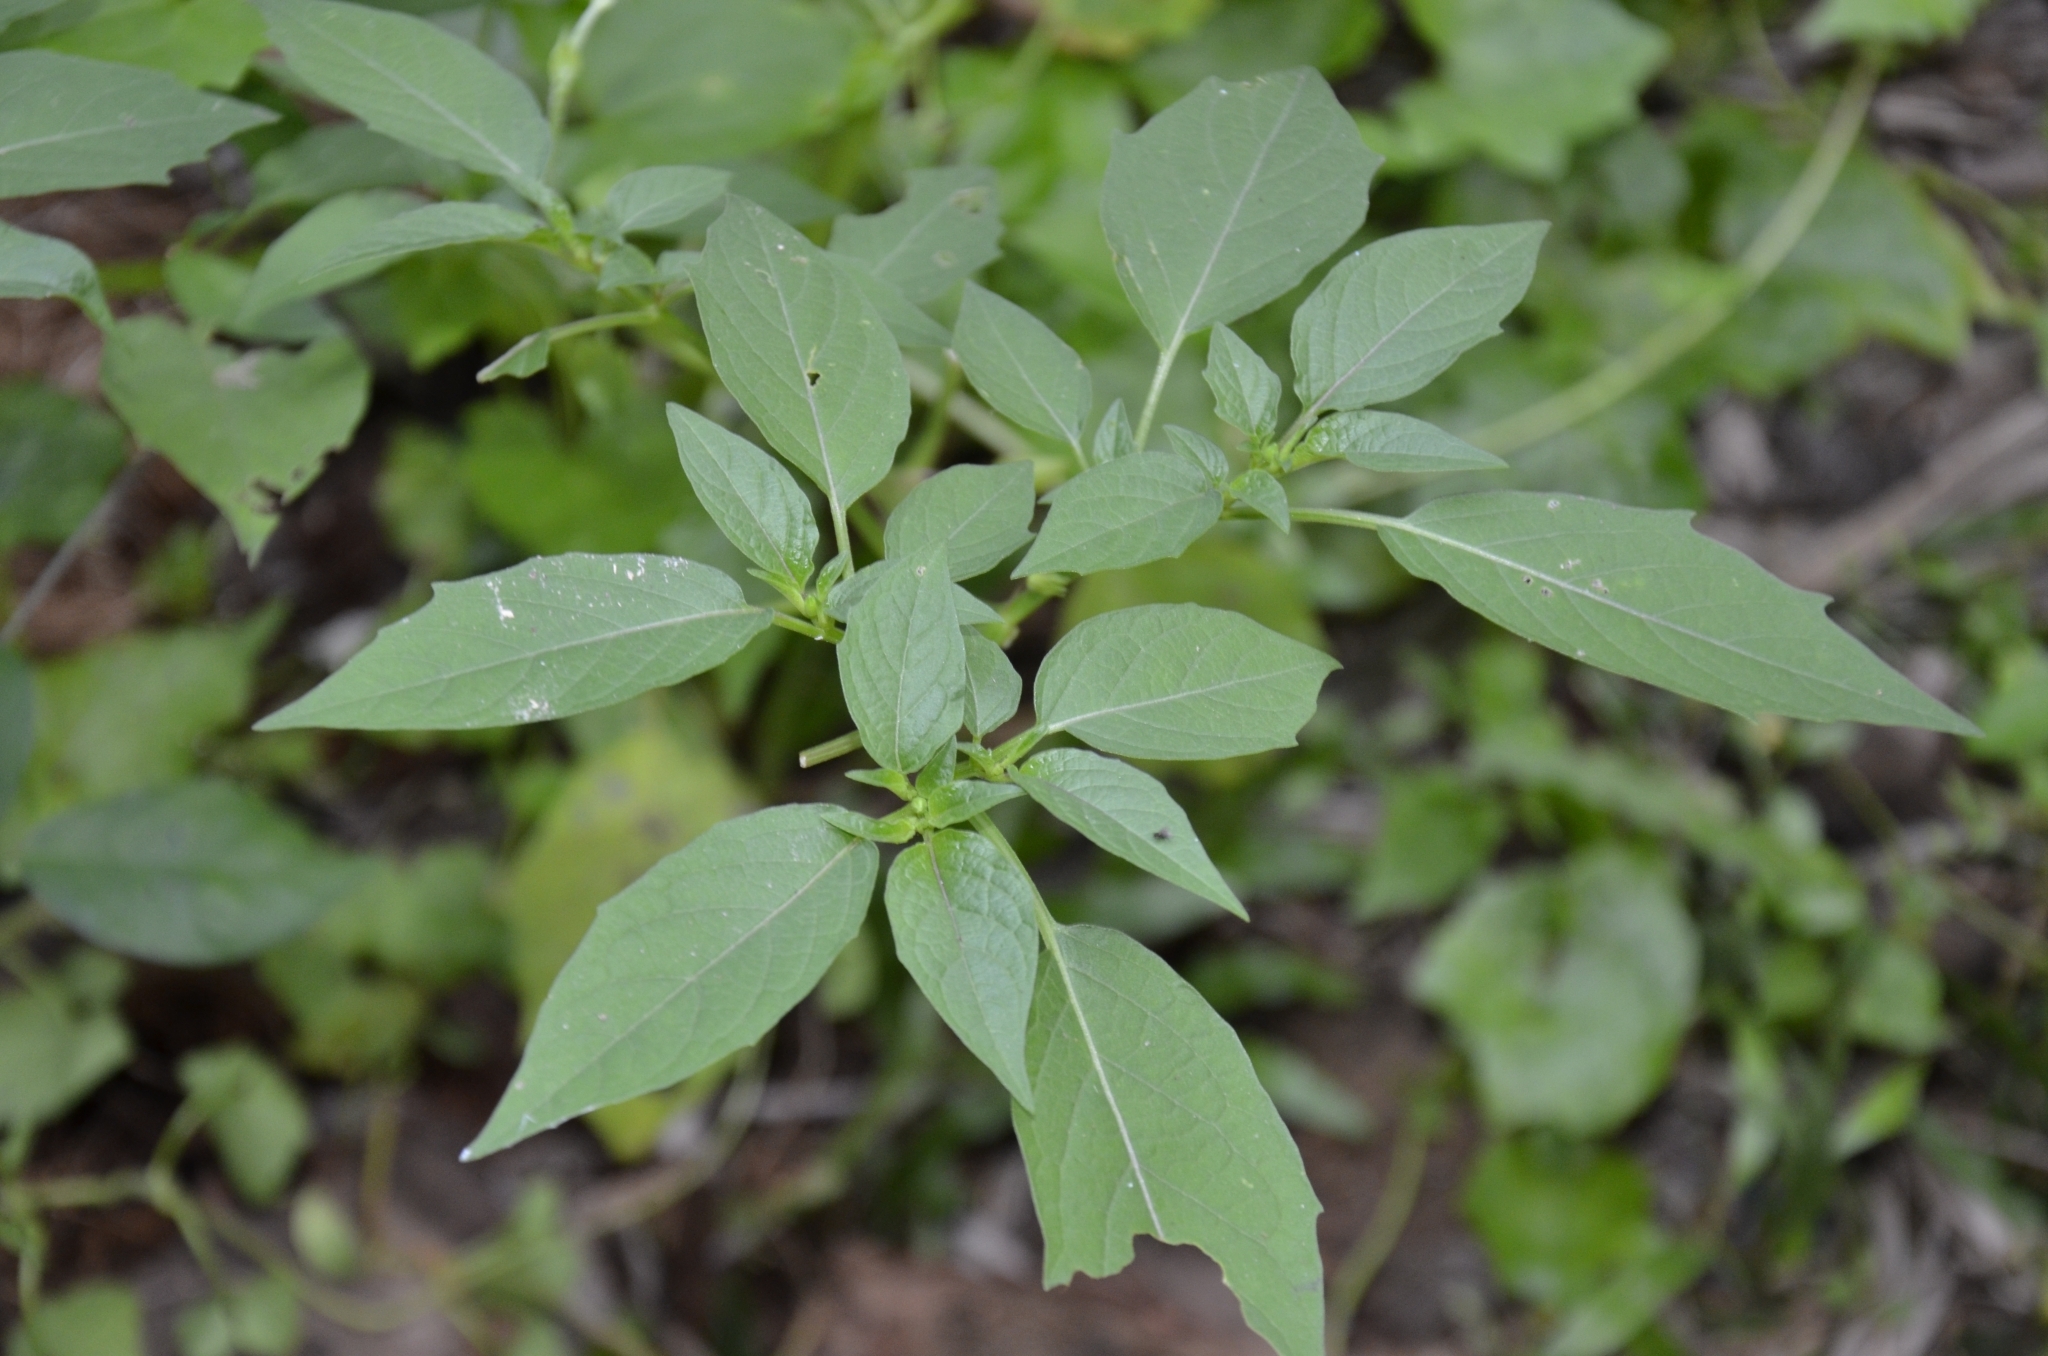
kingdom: Plantae
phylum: Tracheophyta
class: Magnoliopsida
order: Solanales
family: Solanaceae
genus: Physalis
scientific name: Physalis angulata
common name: Angular winter-cherry
